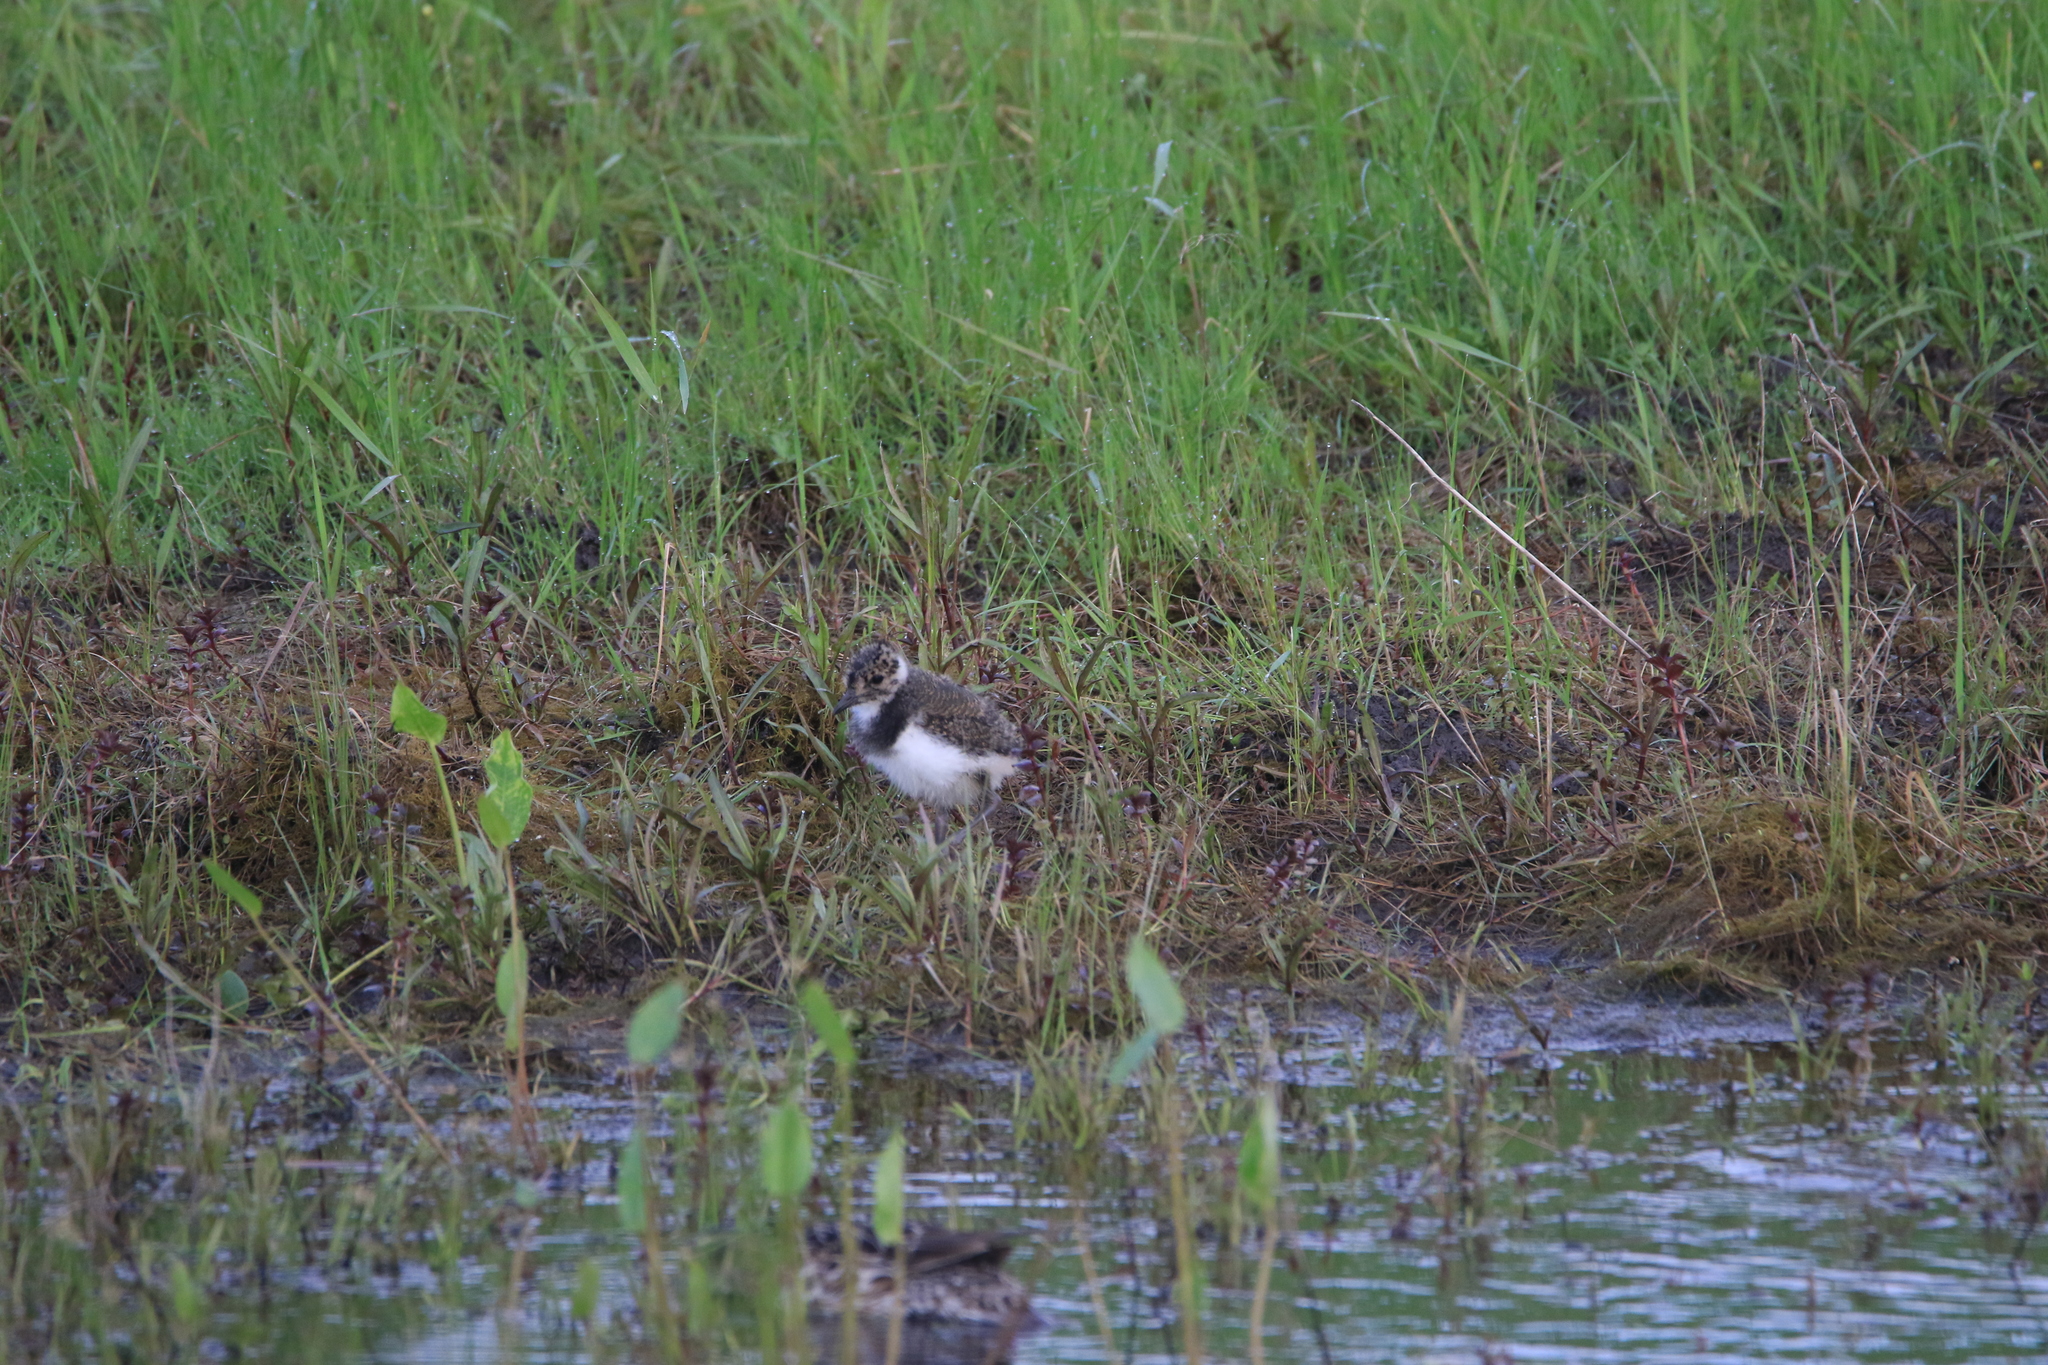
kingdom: Animalia
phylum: Chordata
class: Aves
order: Charadriiformes
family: Charadriidae
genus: Vanellus
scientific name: Vanellus vanellus
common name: Northern lapwing
